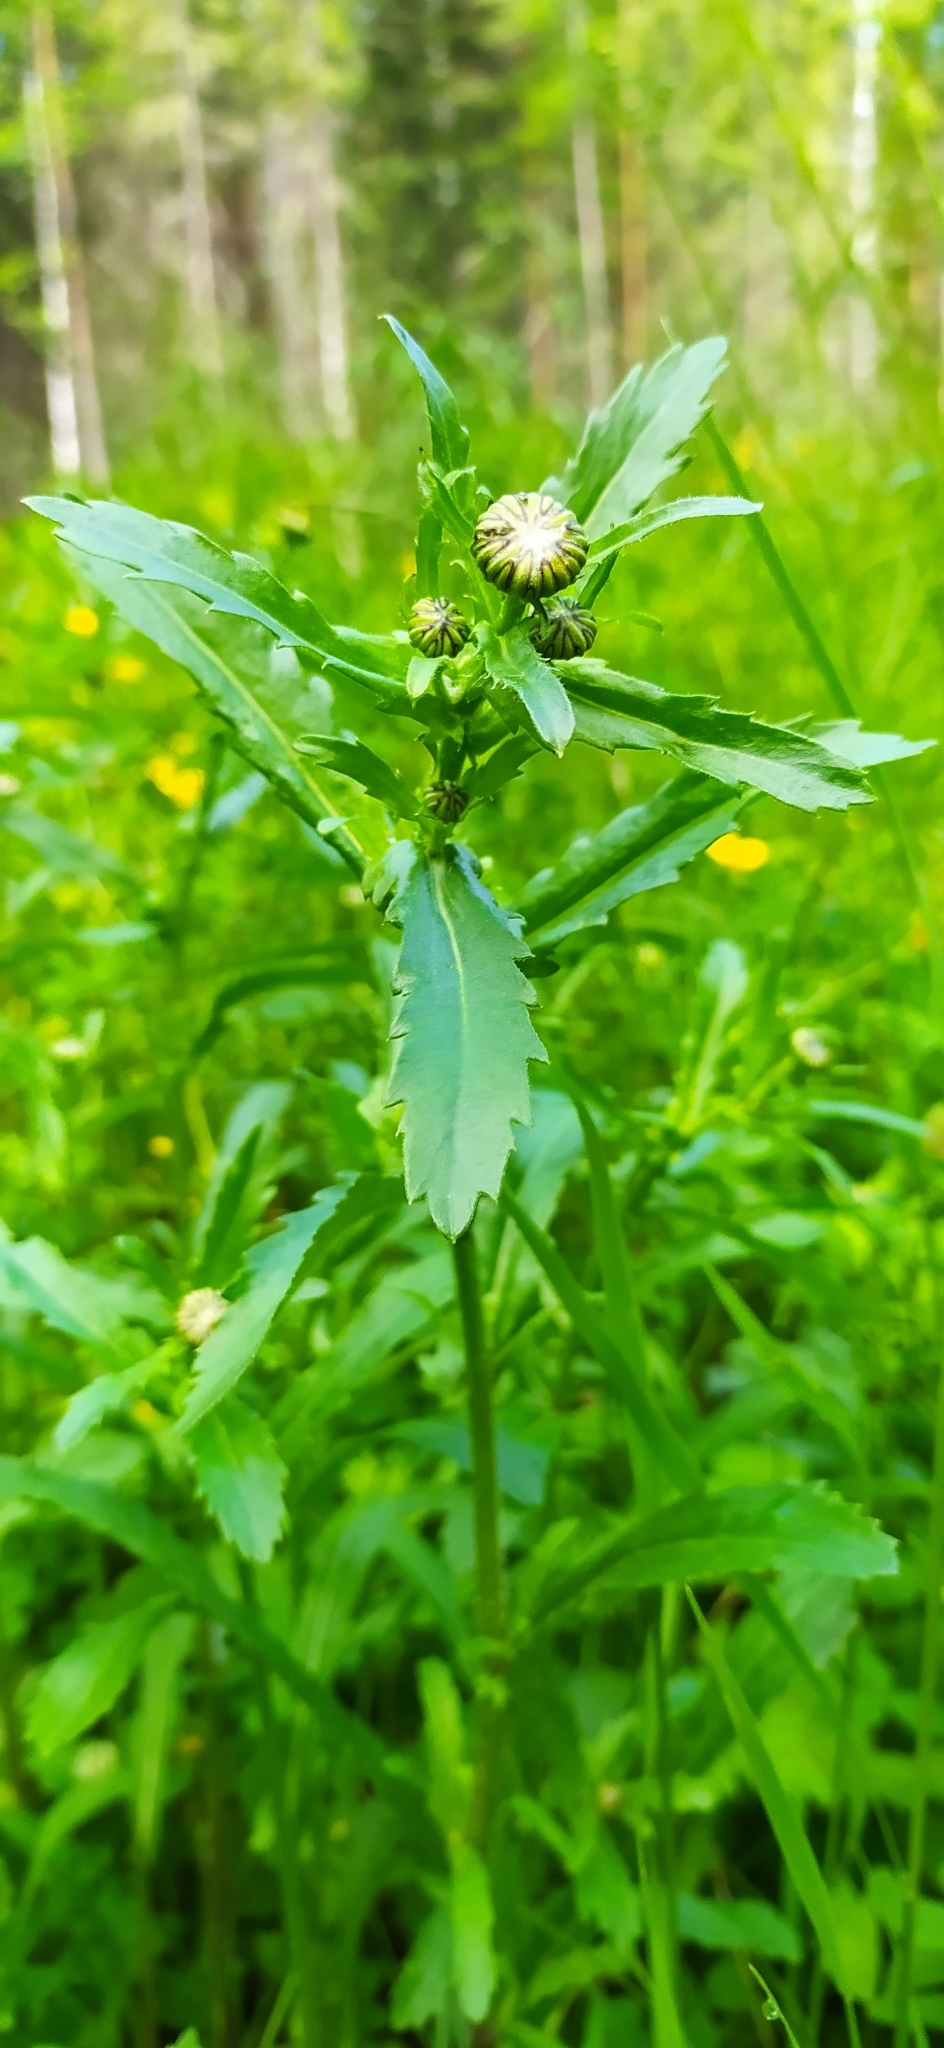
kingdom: Plantae
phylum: Tracheophyta
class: Magnoliopsida
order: Asterales
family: Asteraceae
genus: Leucanthemum
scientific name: Leucanthemum ircutianum
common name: Daisy
